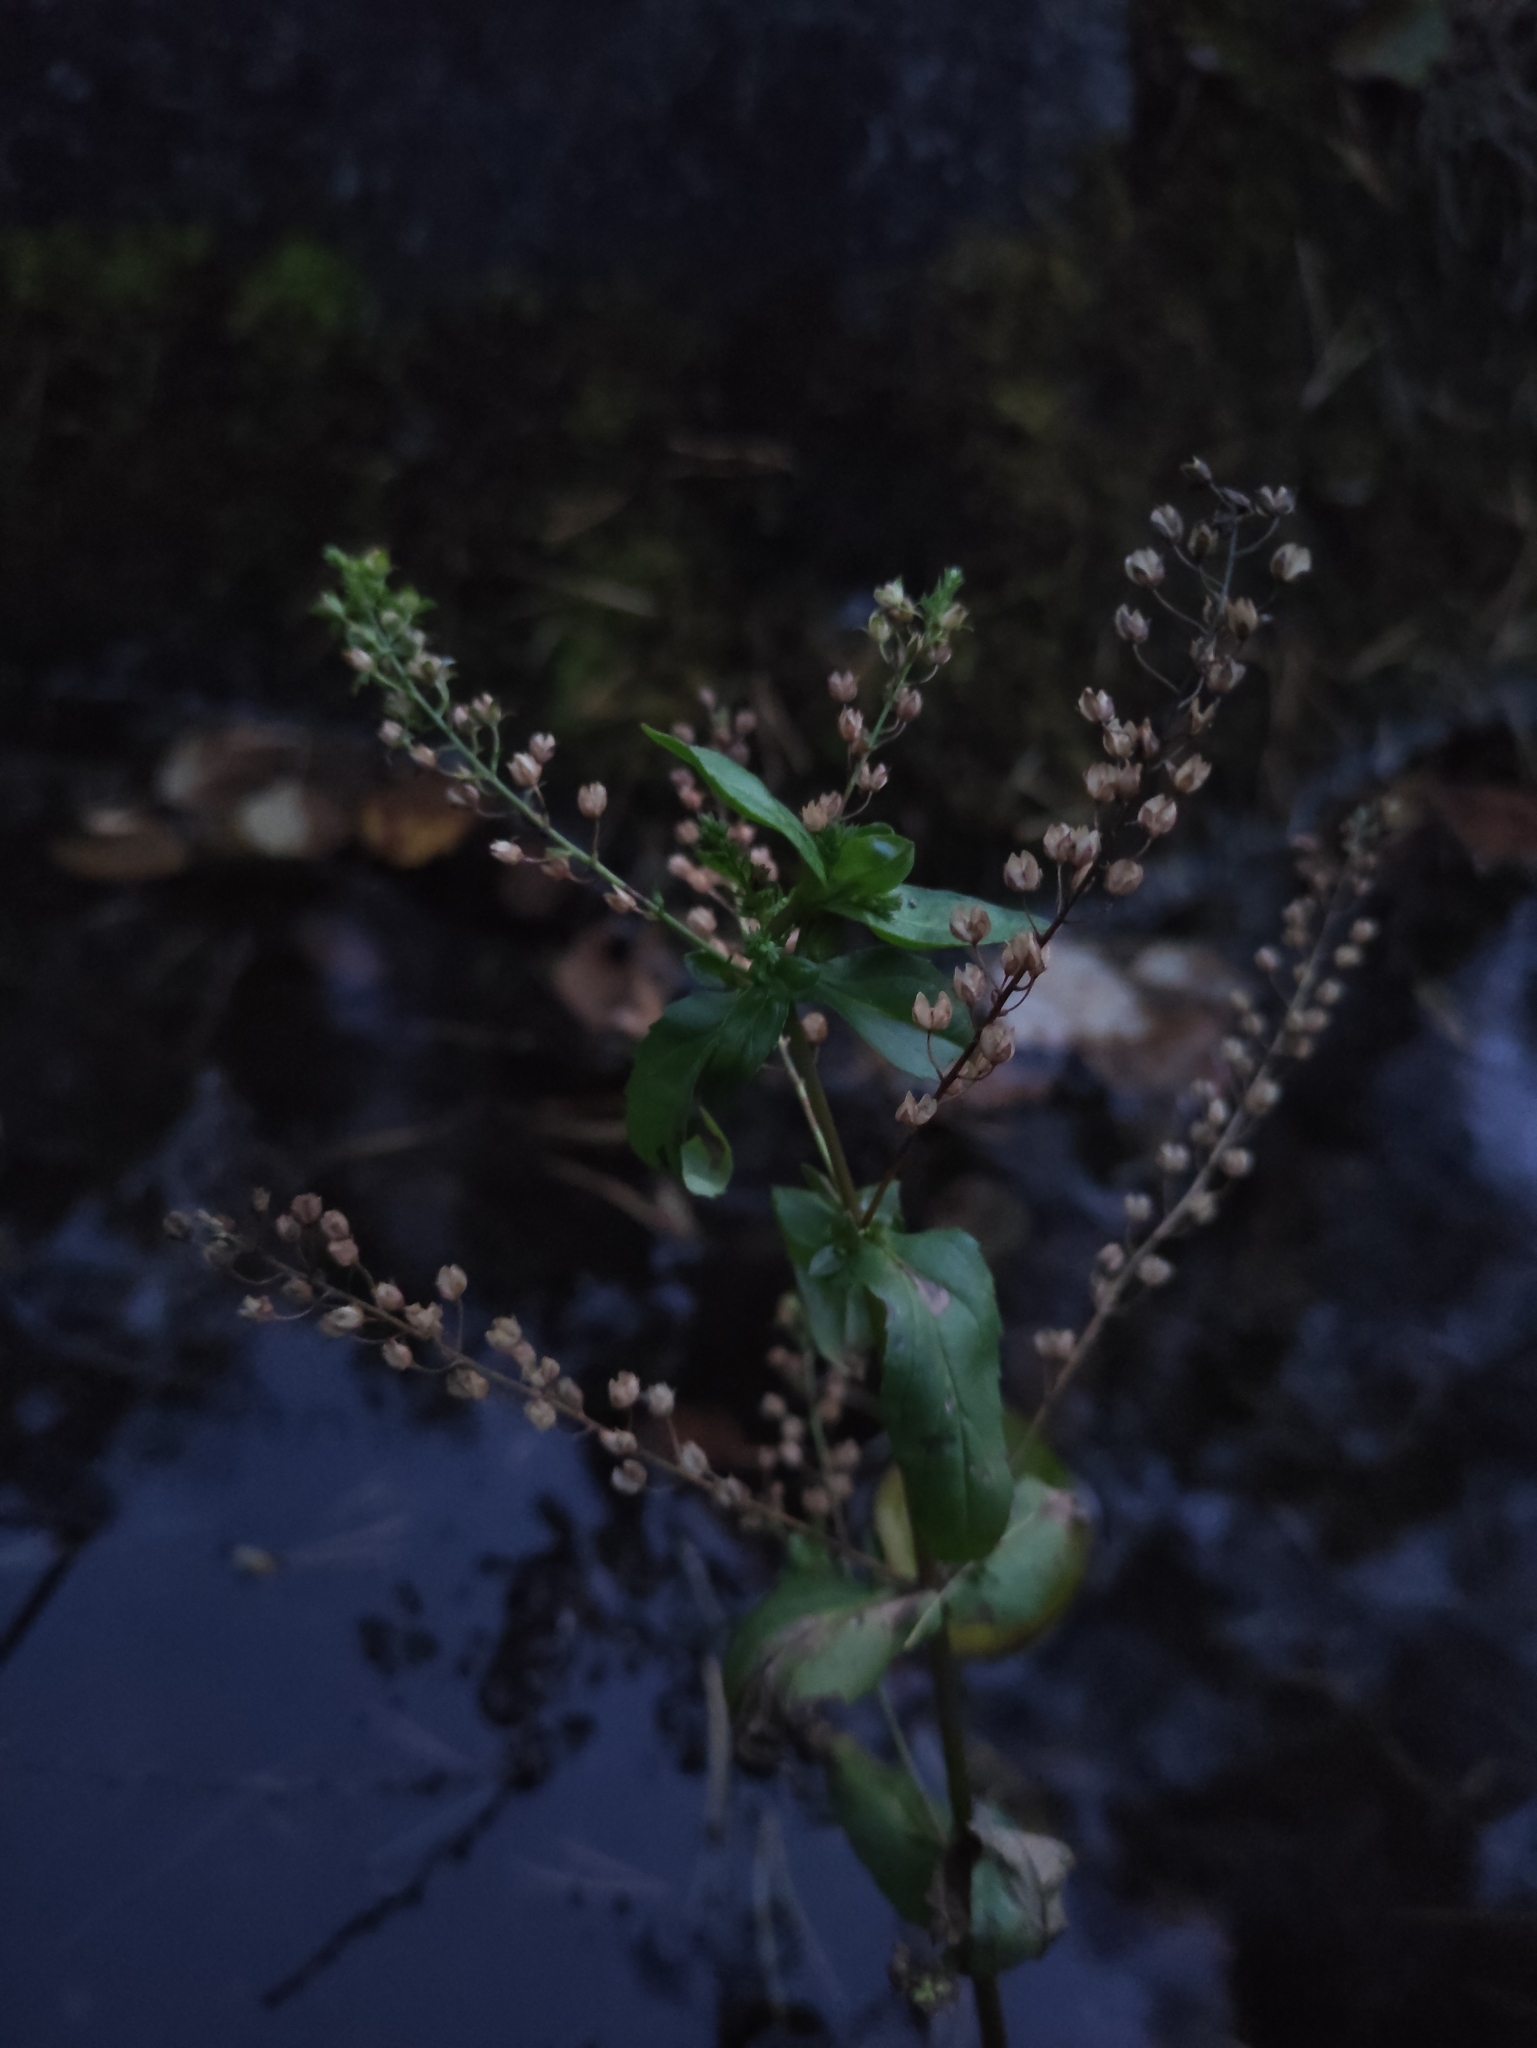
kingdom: Plantae
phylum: Tracheophyta
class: Magnoliopsida
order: Lamiales
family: Plantaginaceae
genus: Veronica
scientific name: Veronica anagallis-aquatica
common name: Water speedwell
